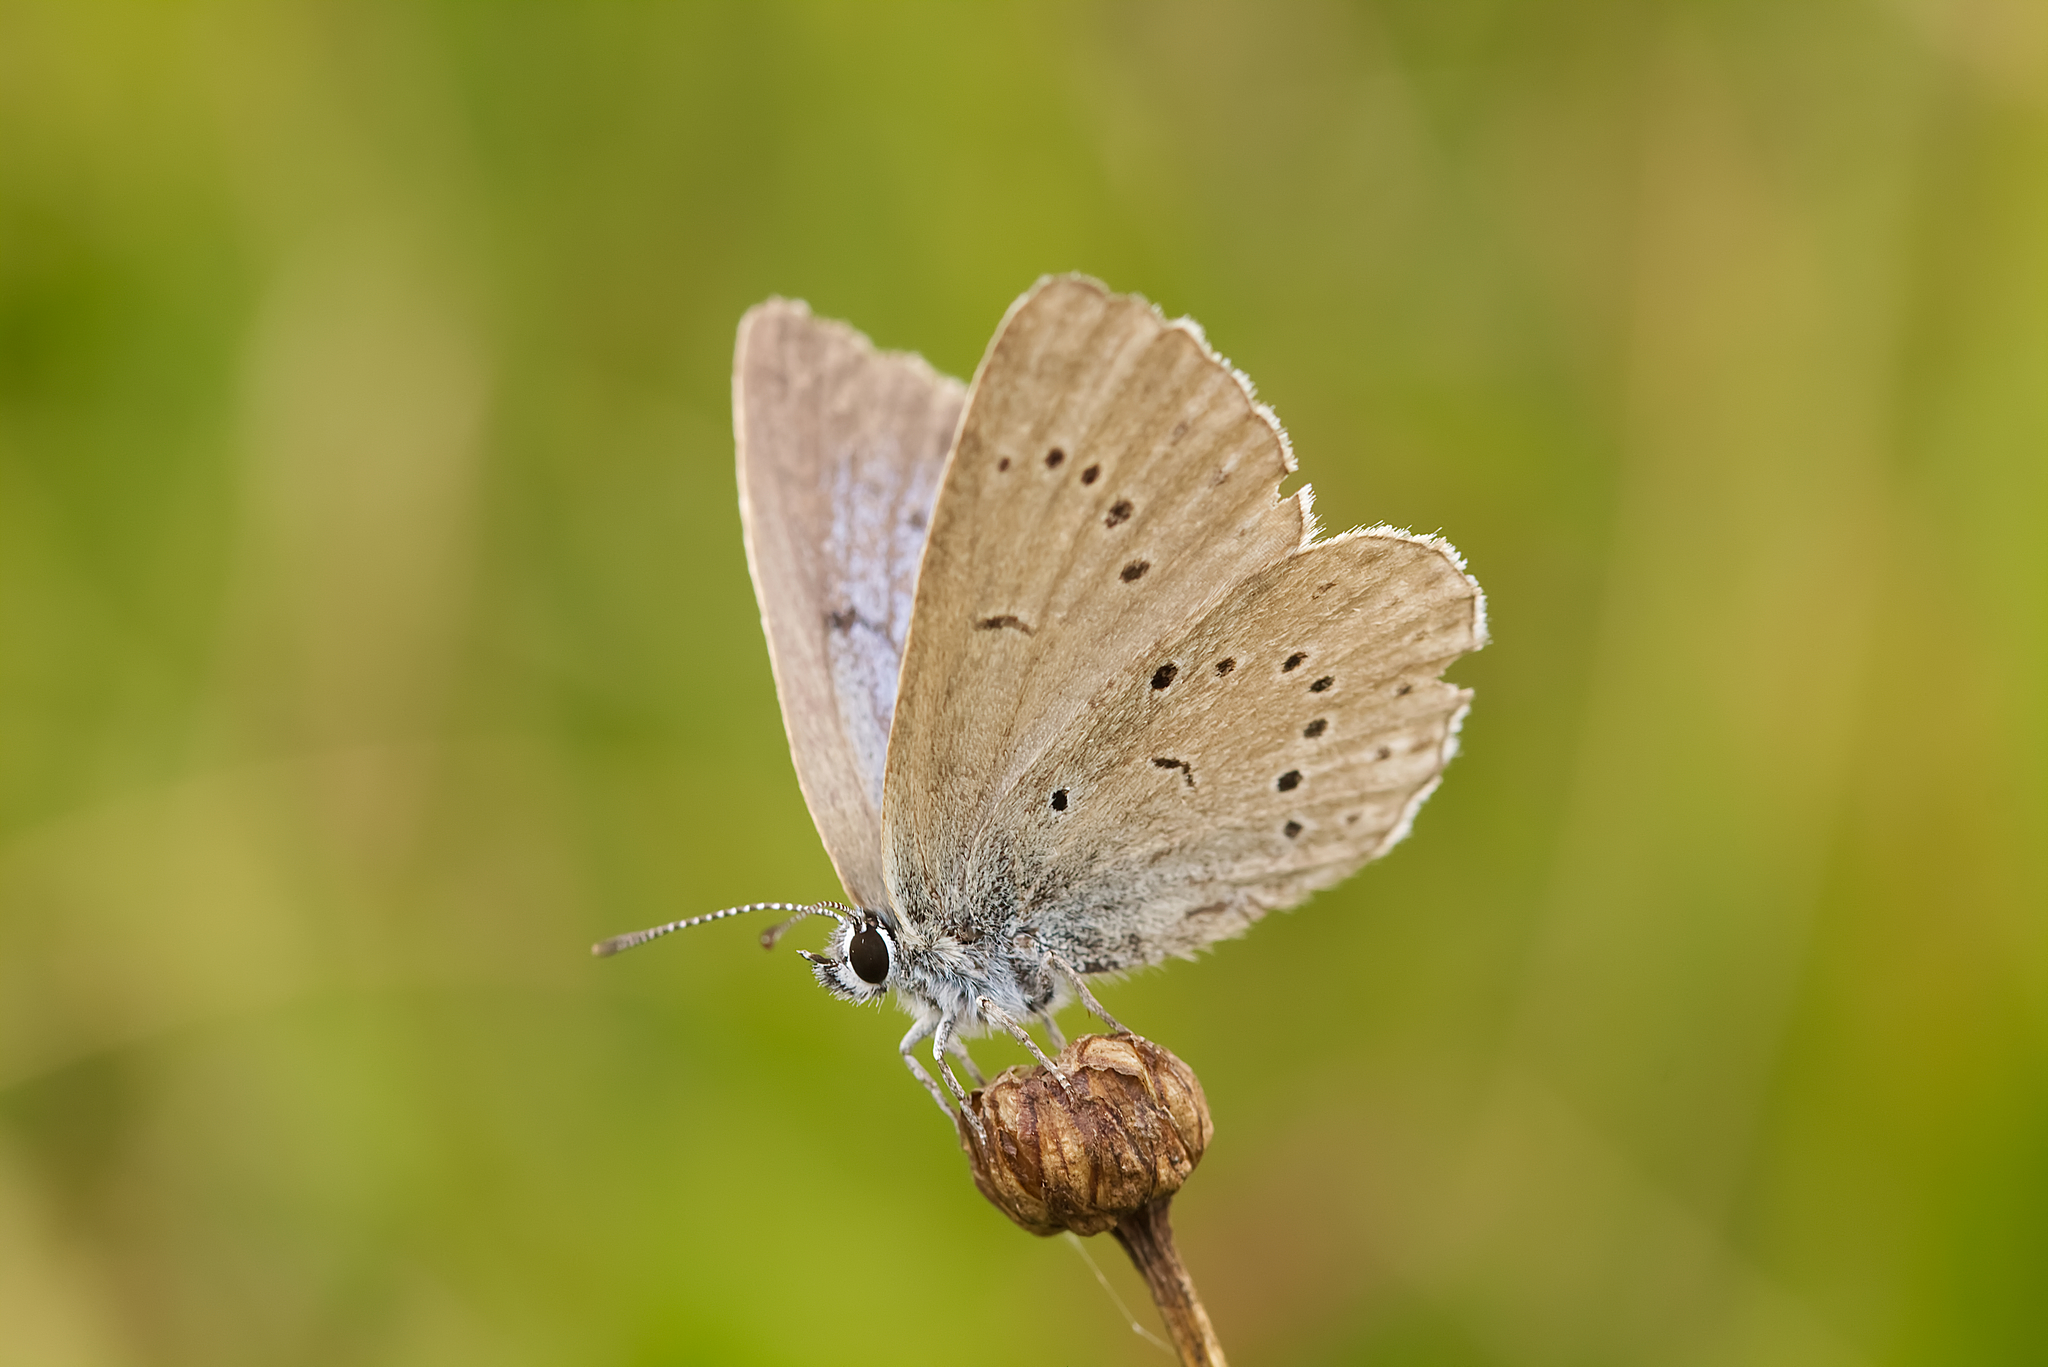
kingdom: Animalia
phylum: Arthropoda
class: Insecta
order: Lepidoptera
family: Lycaenidae
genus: Phengaris
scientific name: Phengaris teleius
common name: Scarce large blue
